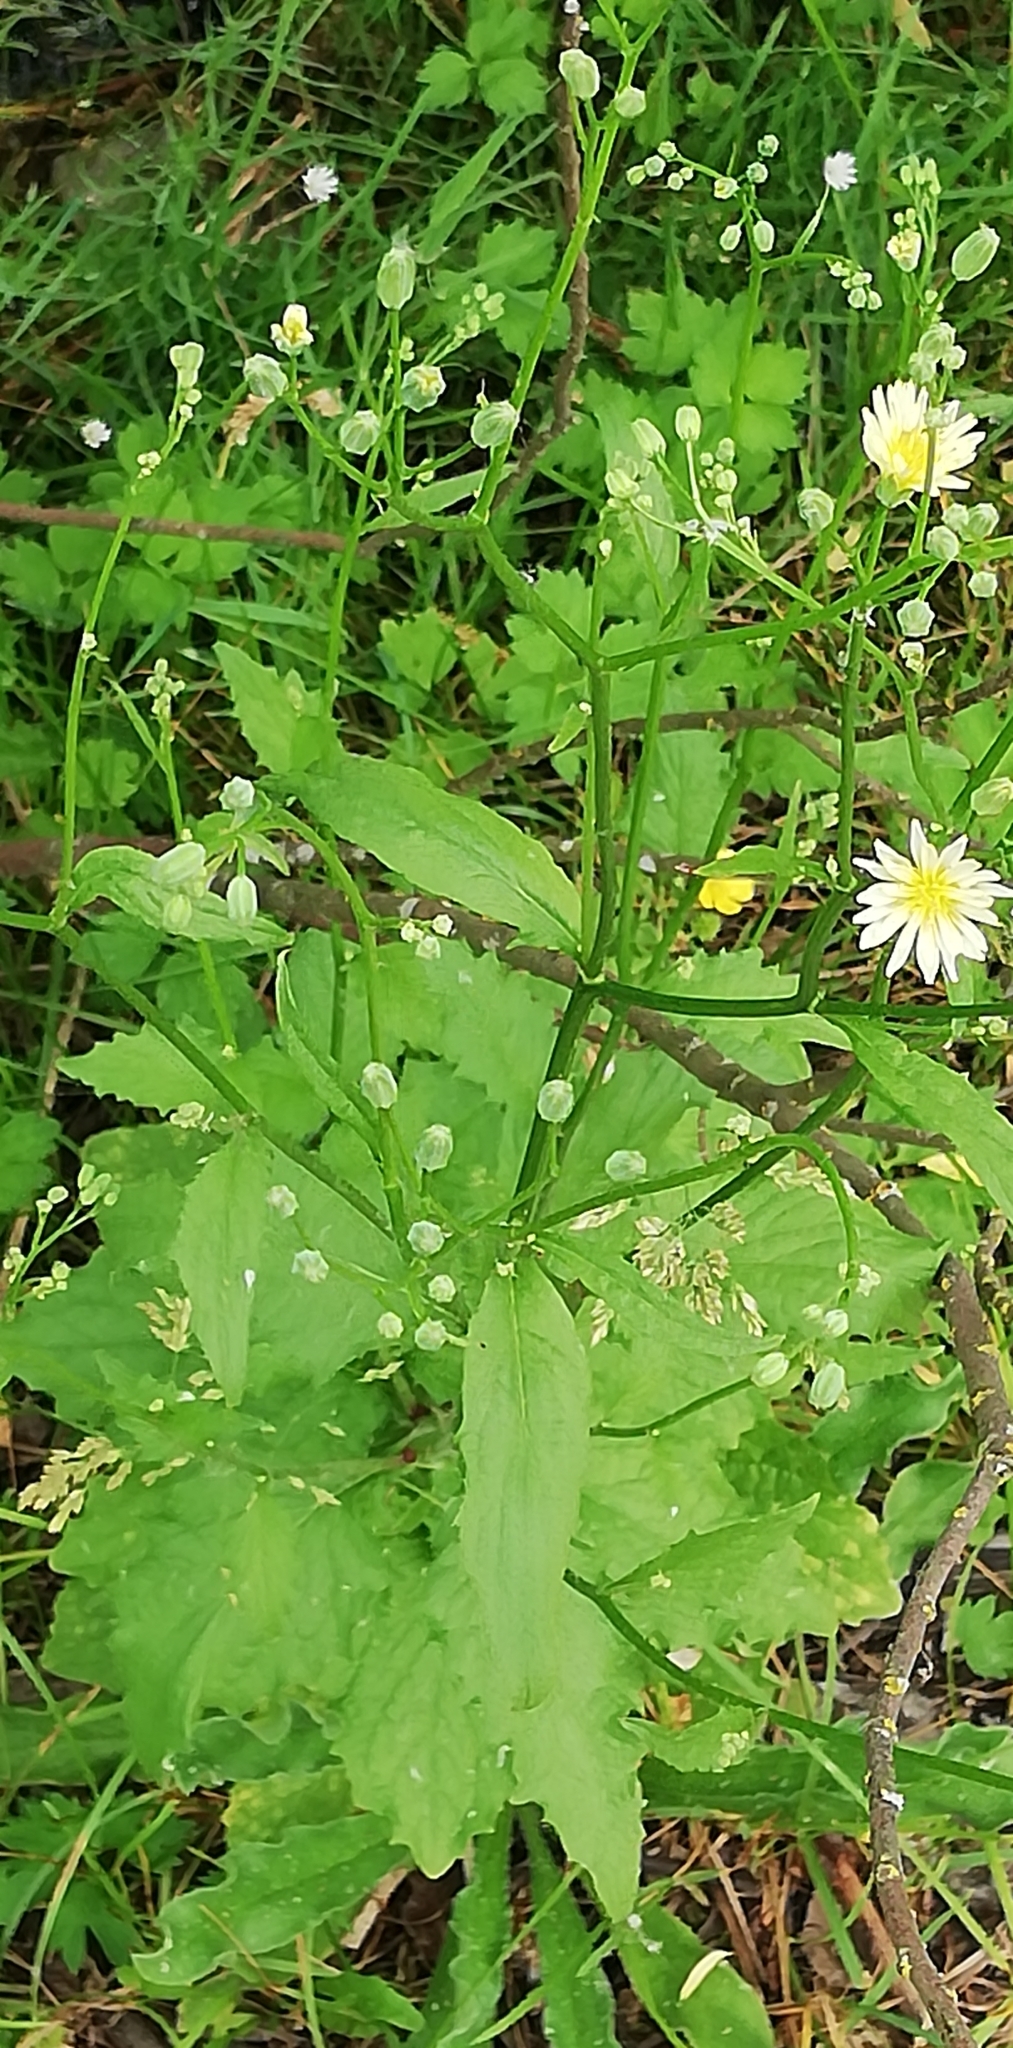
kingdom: Plantae
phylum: Tracheophyta
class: Magnoliopsida
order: Asterales
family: Asteraceae
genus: Lapsana
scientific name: Lapsana communis
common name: Nipplewort
